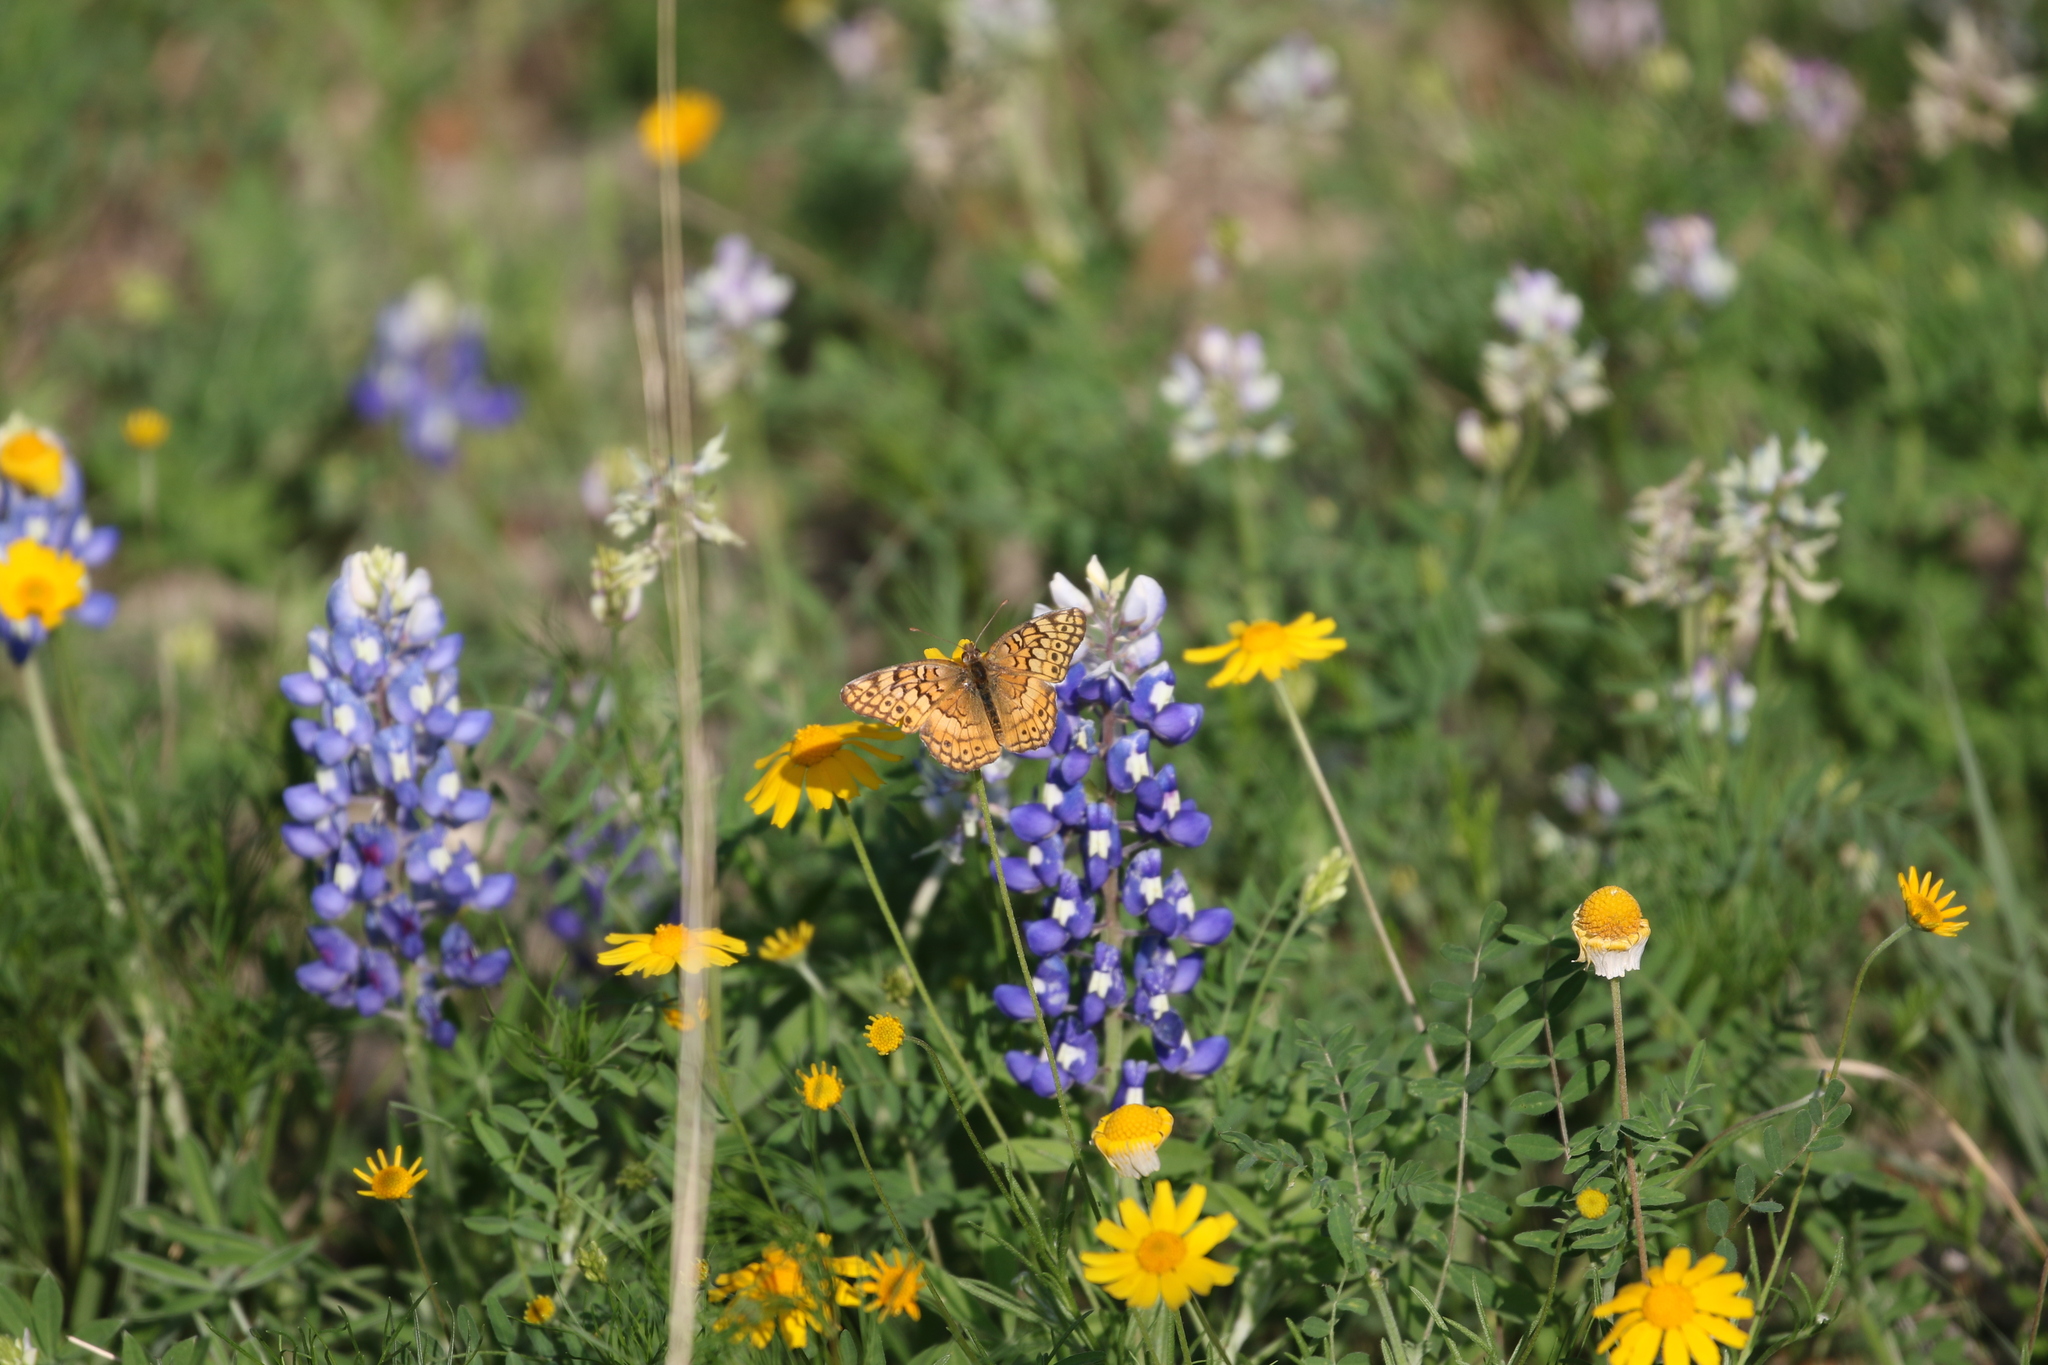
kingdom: Animalia
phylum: Arthropoda
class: Insecta
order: Lepidoptera
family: Nymphalidae
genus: Euptoieta
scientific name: Euptoieta claudia
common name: Variegated fritillary
